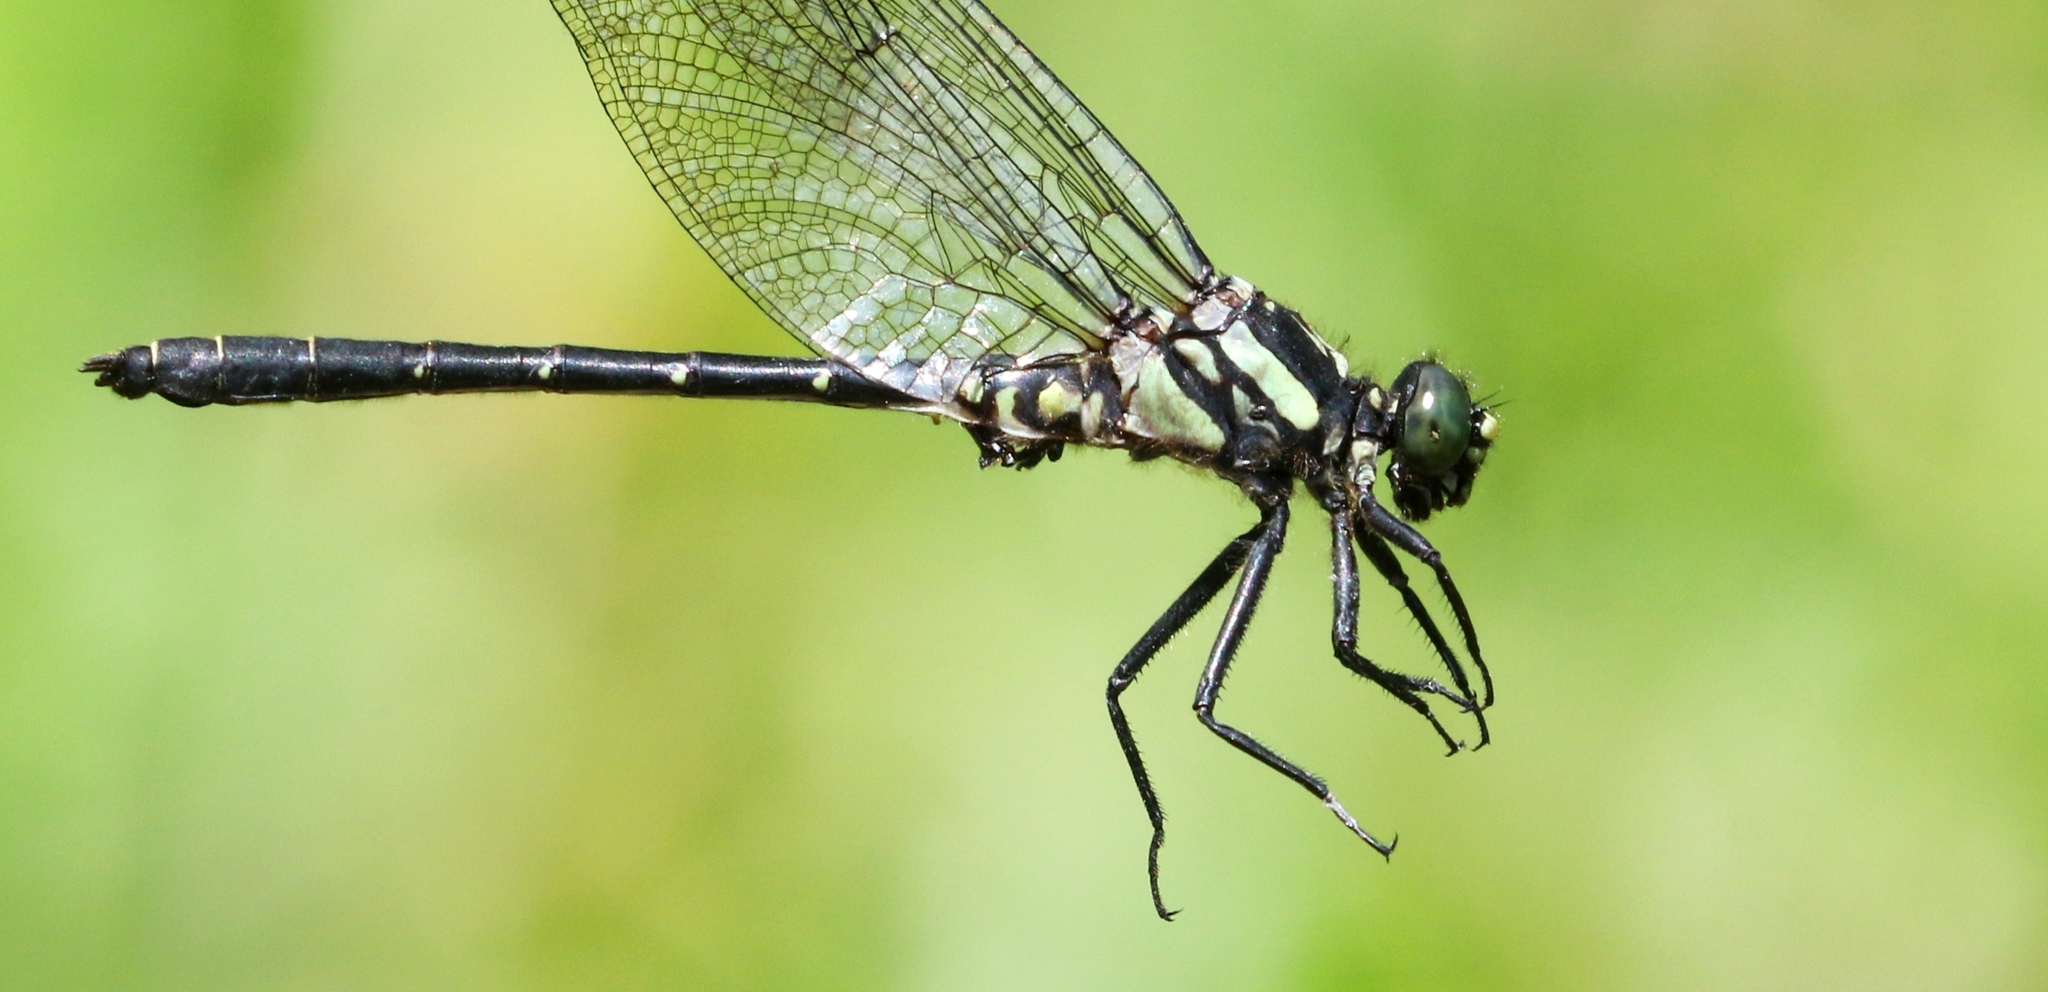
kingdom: Animalia
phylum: Arthropoda
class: Insecta
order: Odonata
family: Gomphidae
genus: Lanthus
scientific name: Lanthus parvulus
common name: Northern pygmy clubtail
